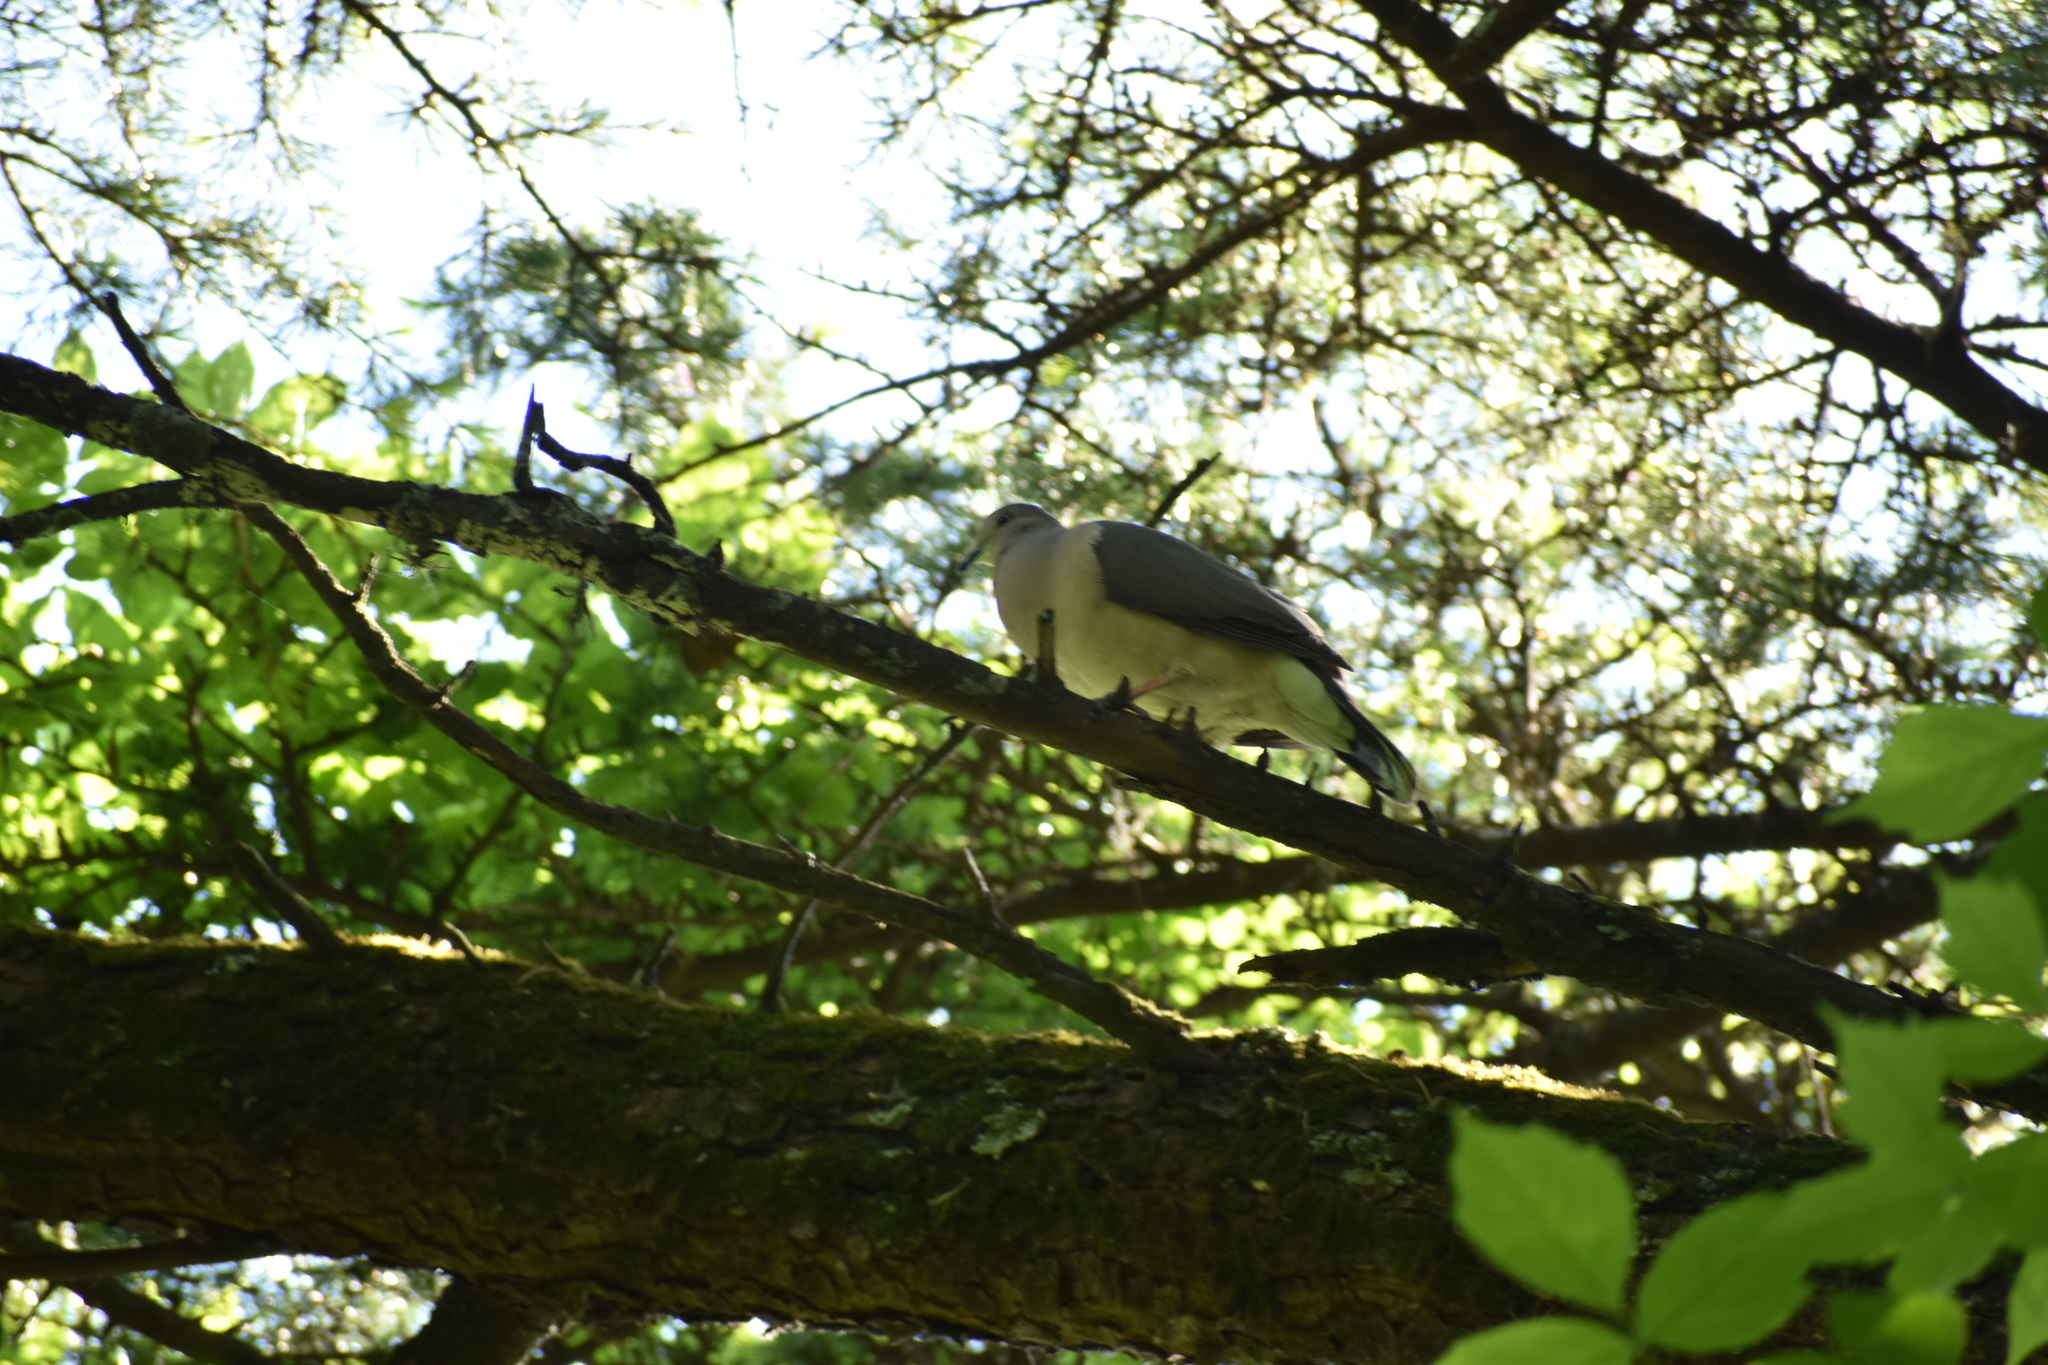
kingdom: Animalia
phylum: Chordata
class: Aves
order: Columbiformes
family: Columbidae
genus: Leptotila
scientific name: Leptotila verreauxi
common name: White-tipped dove
